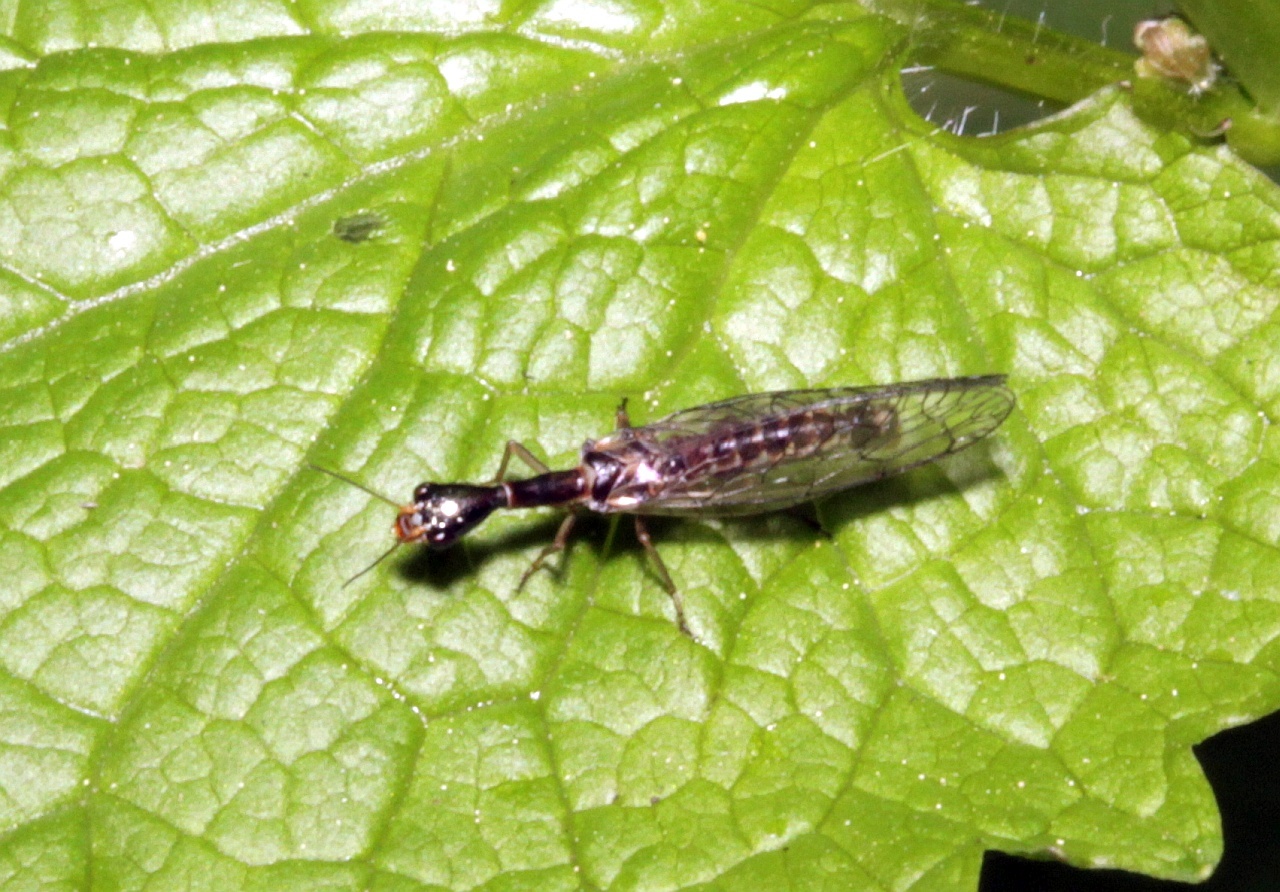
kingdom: Animalia
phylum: Arthropoda
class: Insecta
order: Raphidioptera
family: Raphidiidae
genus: Xanthostigma
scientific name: Xanthostigma xanthostigma
